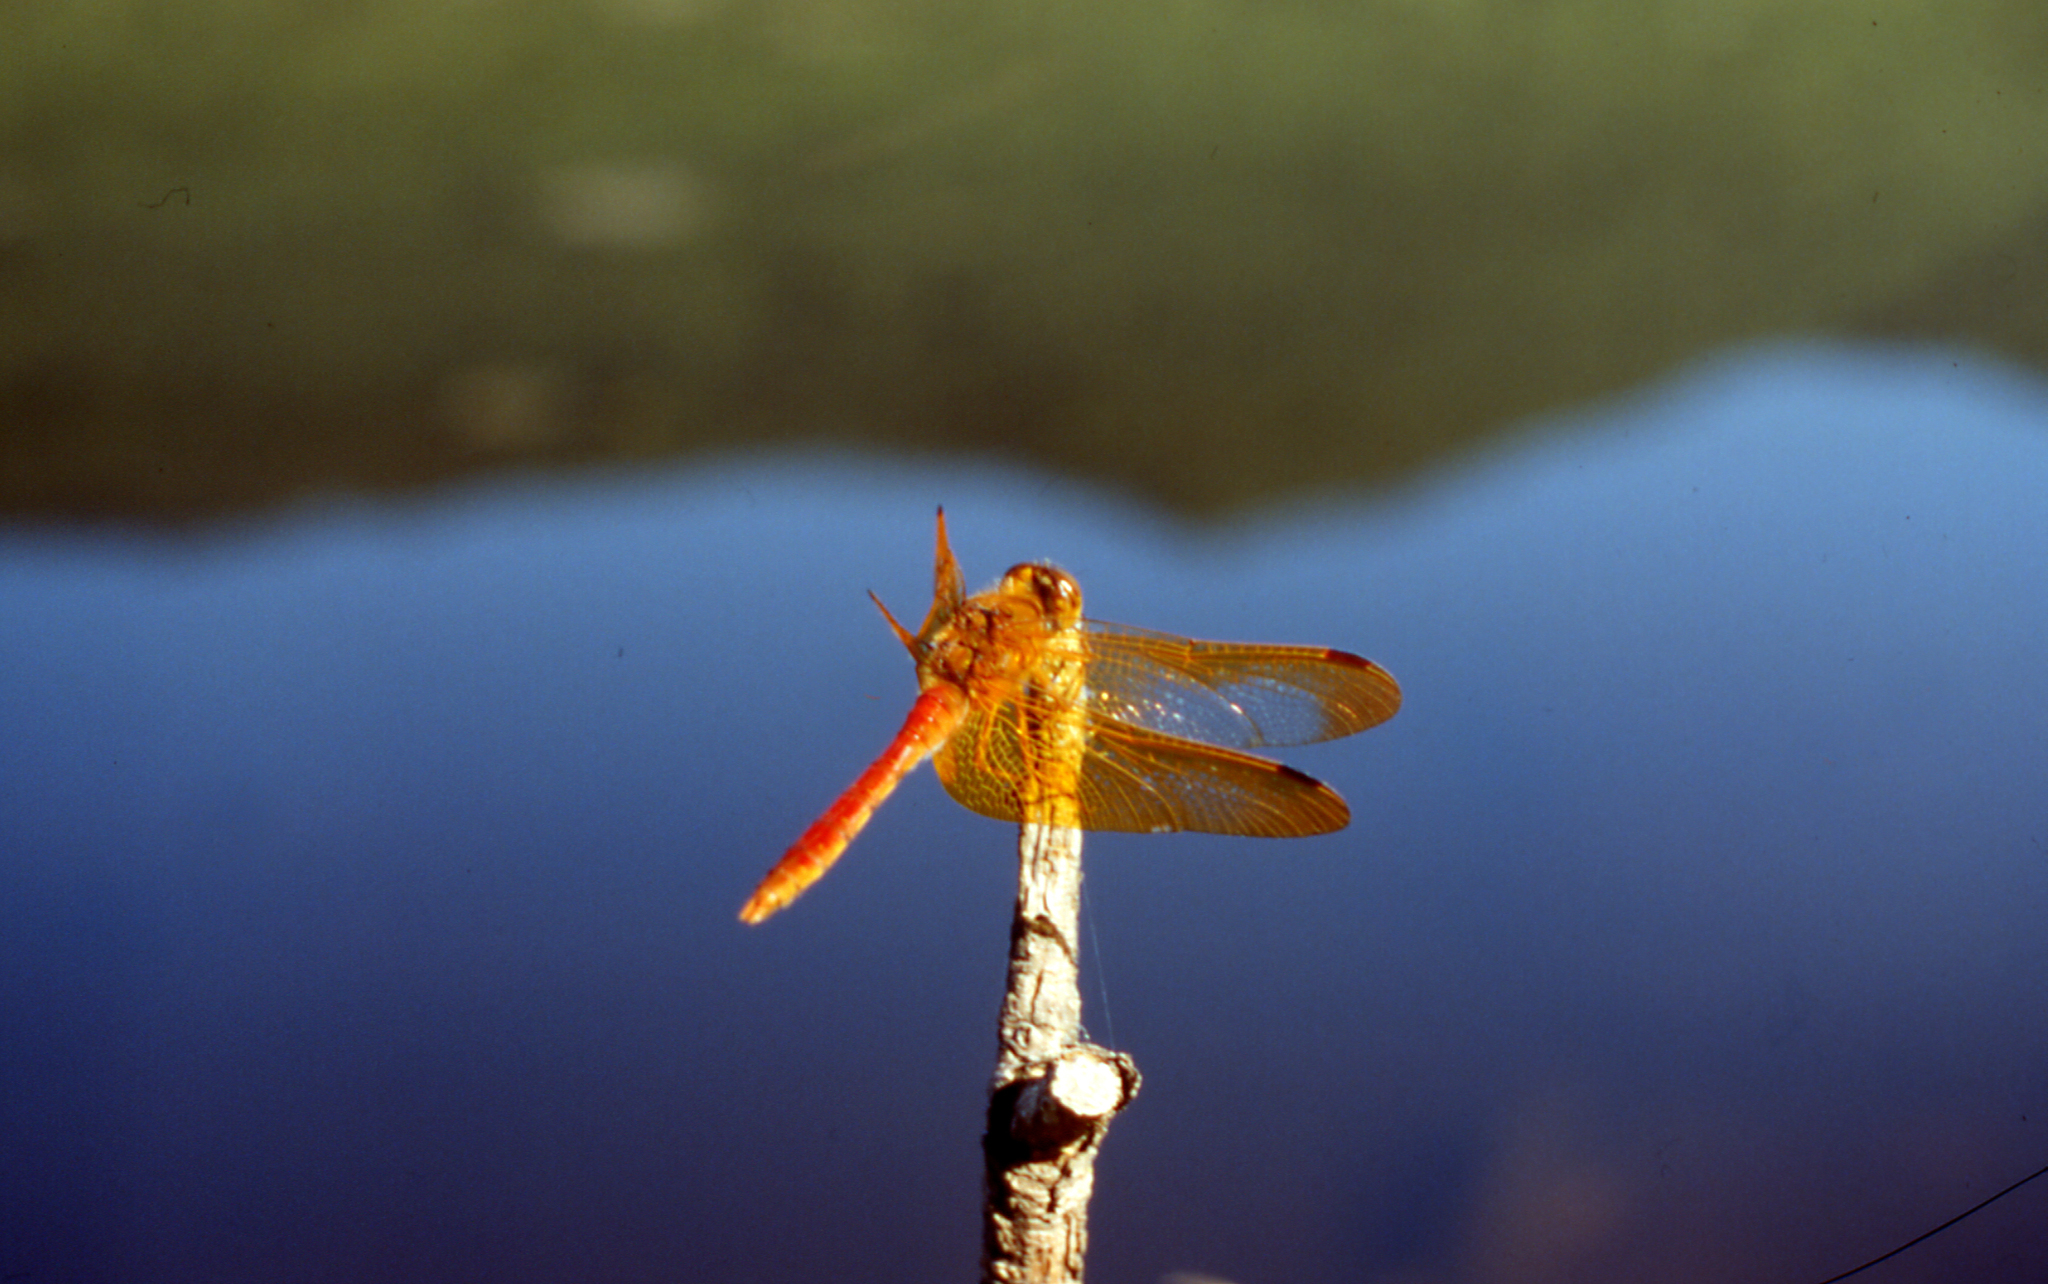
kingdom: Animalia
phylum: Arthropoda
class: Insecta
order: Odonata
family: Libellulidae
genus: Sympetrum
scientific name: Sympetrum croceolum
